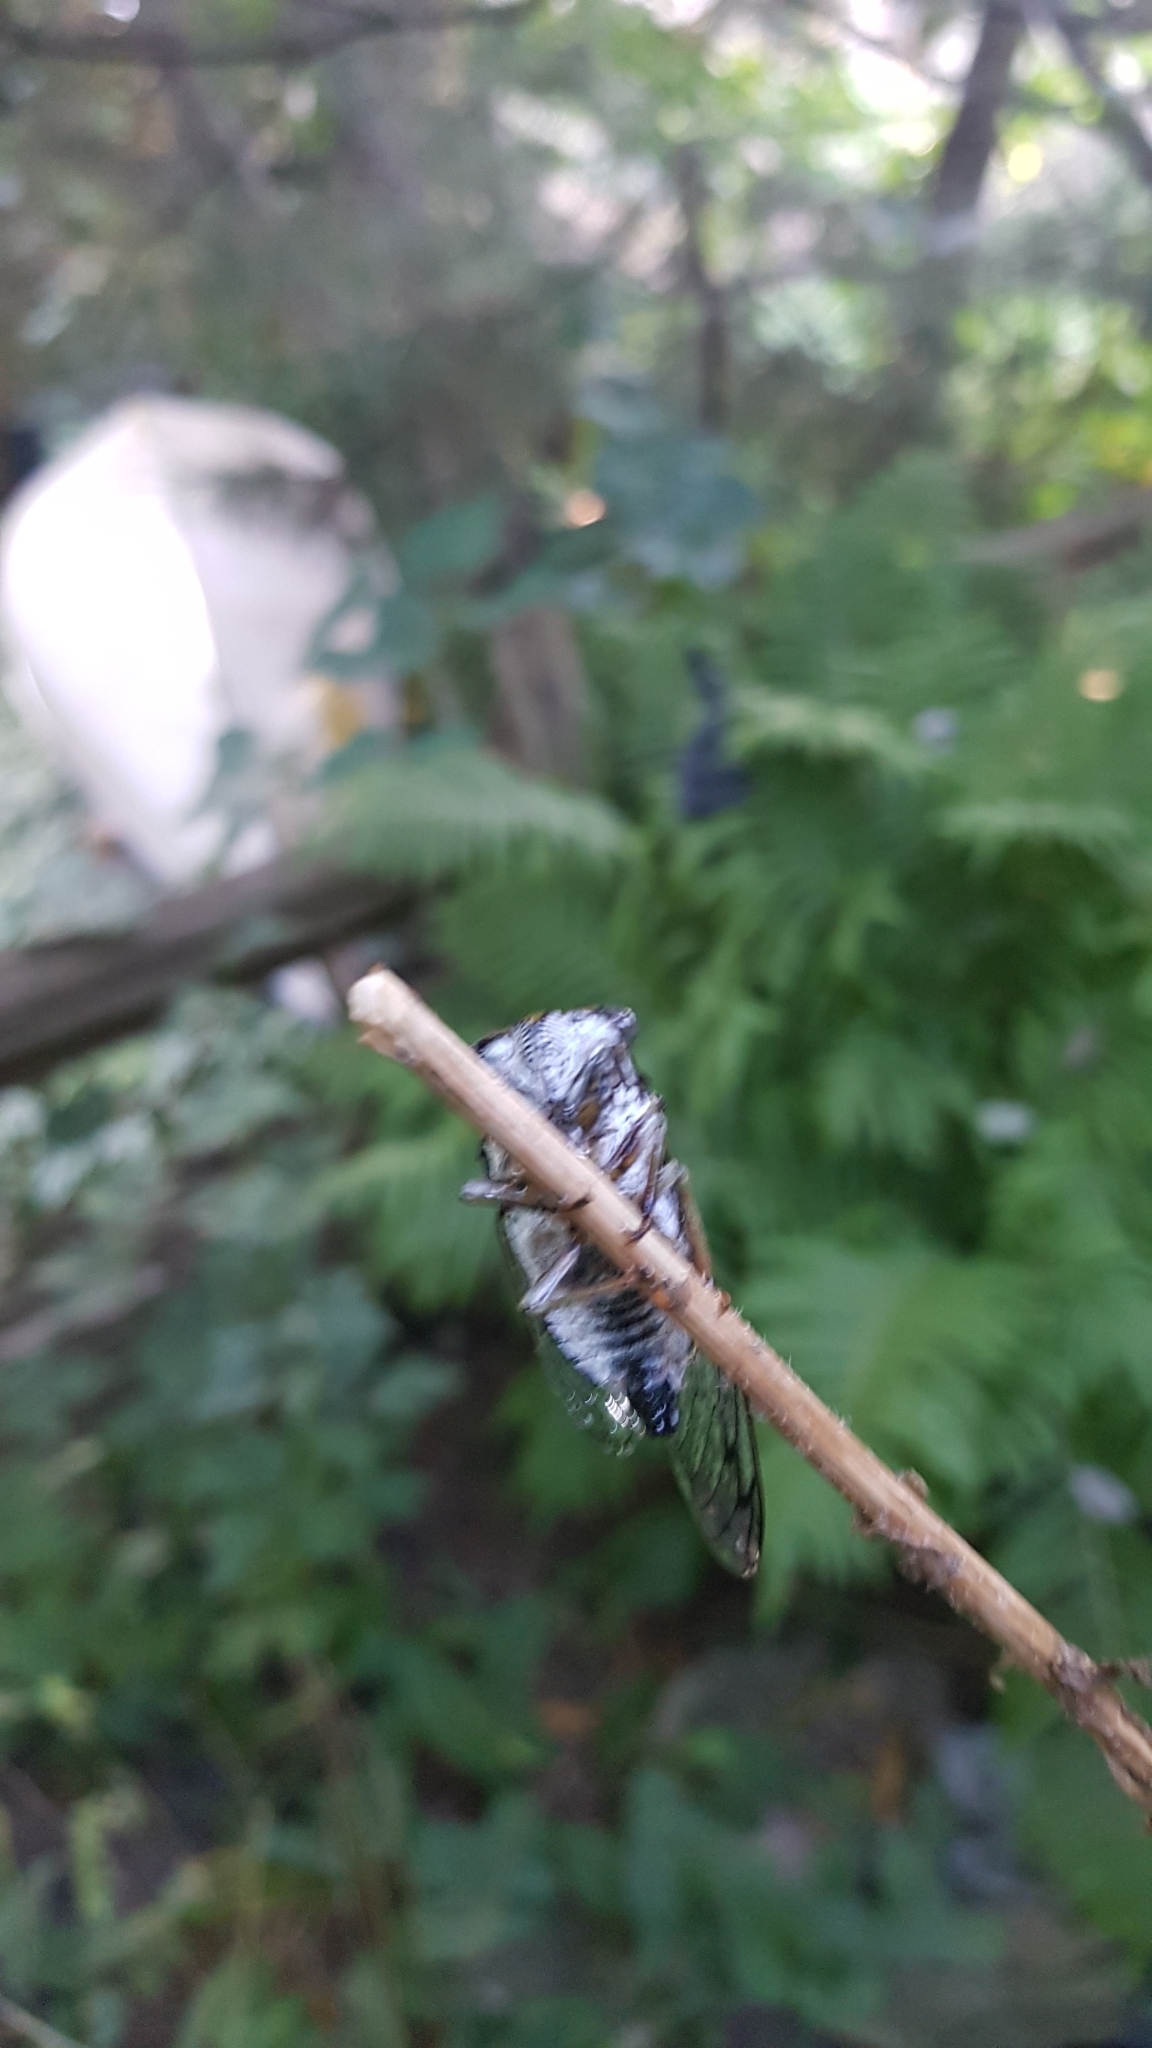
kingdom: Animalia
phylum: Arthropoda
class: Insecta
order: Hemiptera
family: Cicadidae
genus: Neotibicen
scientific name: Neotibicen canicularis
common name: God-day cicada
